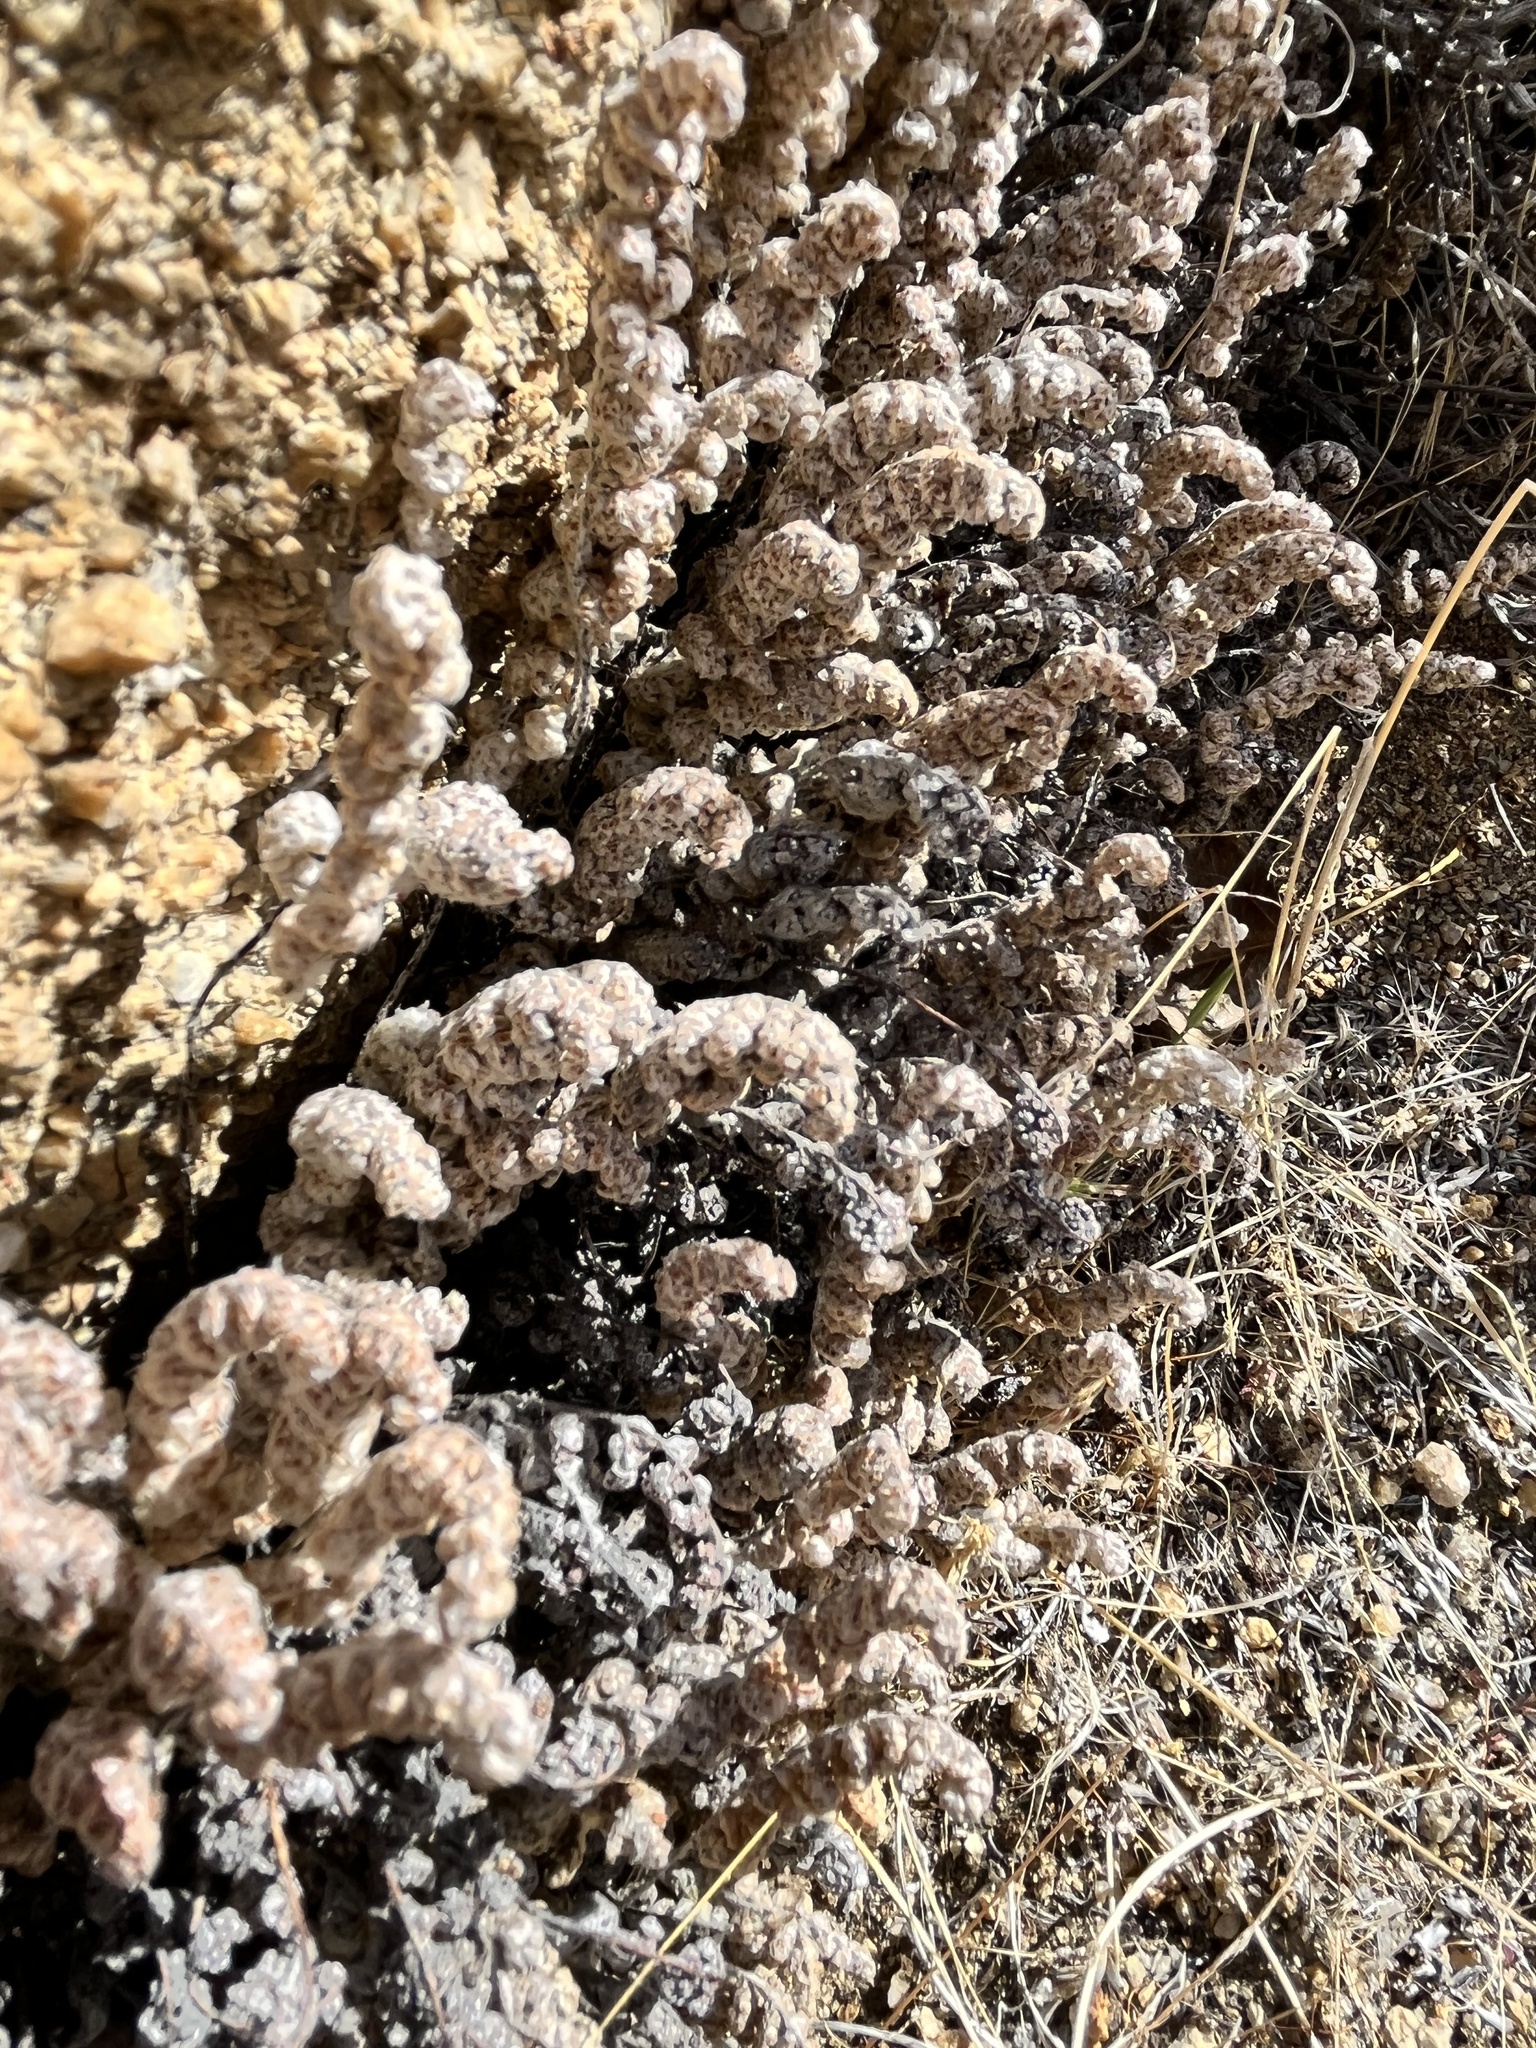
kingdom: Plantae
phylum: Tracheophyta
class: Polypodiopsida
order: Polypodiales
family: Pteridaceae
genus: Myriopteris
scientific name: Myriopteris covillei
